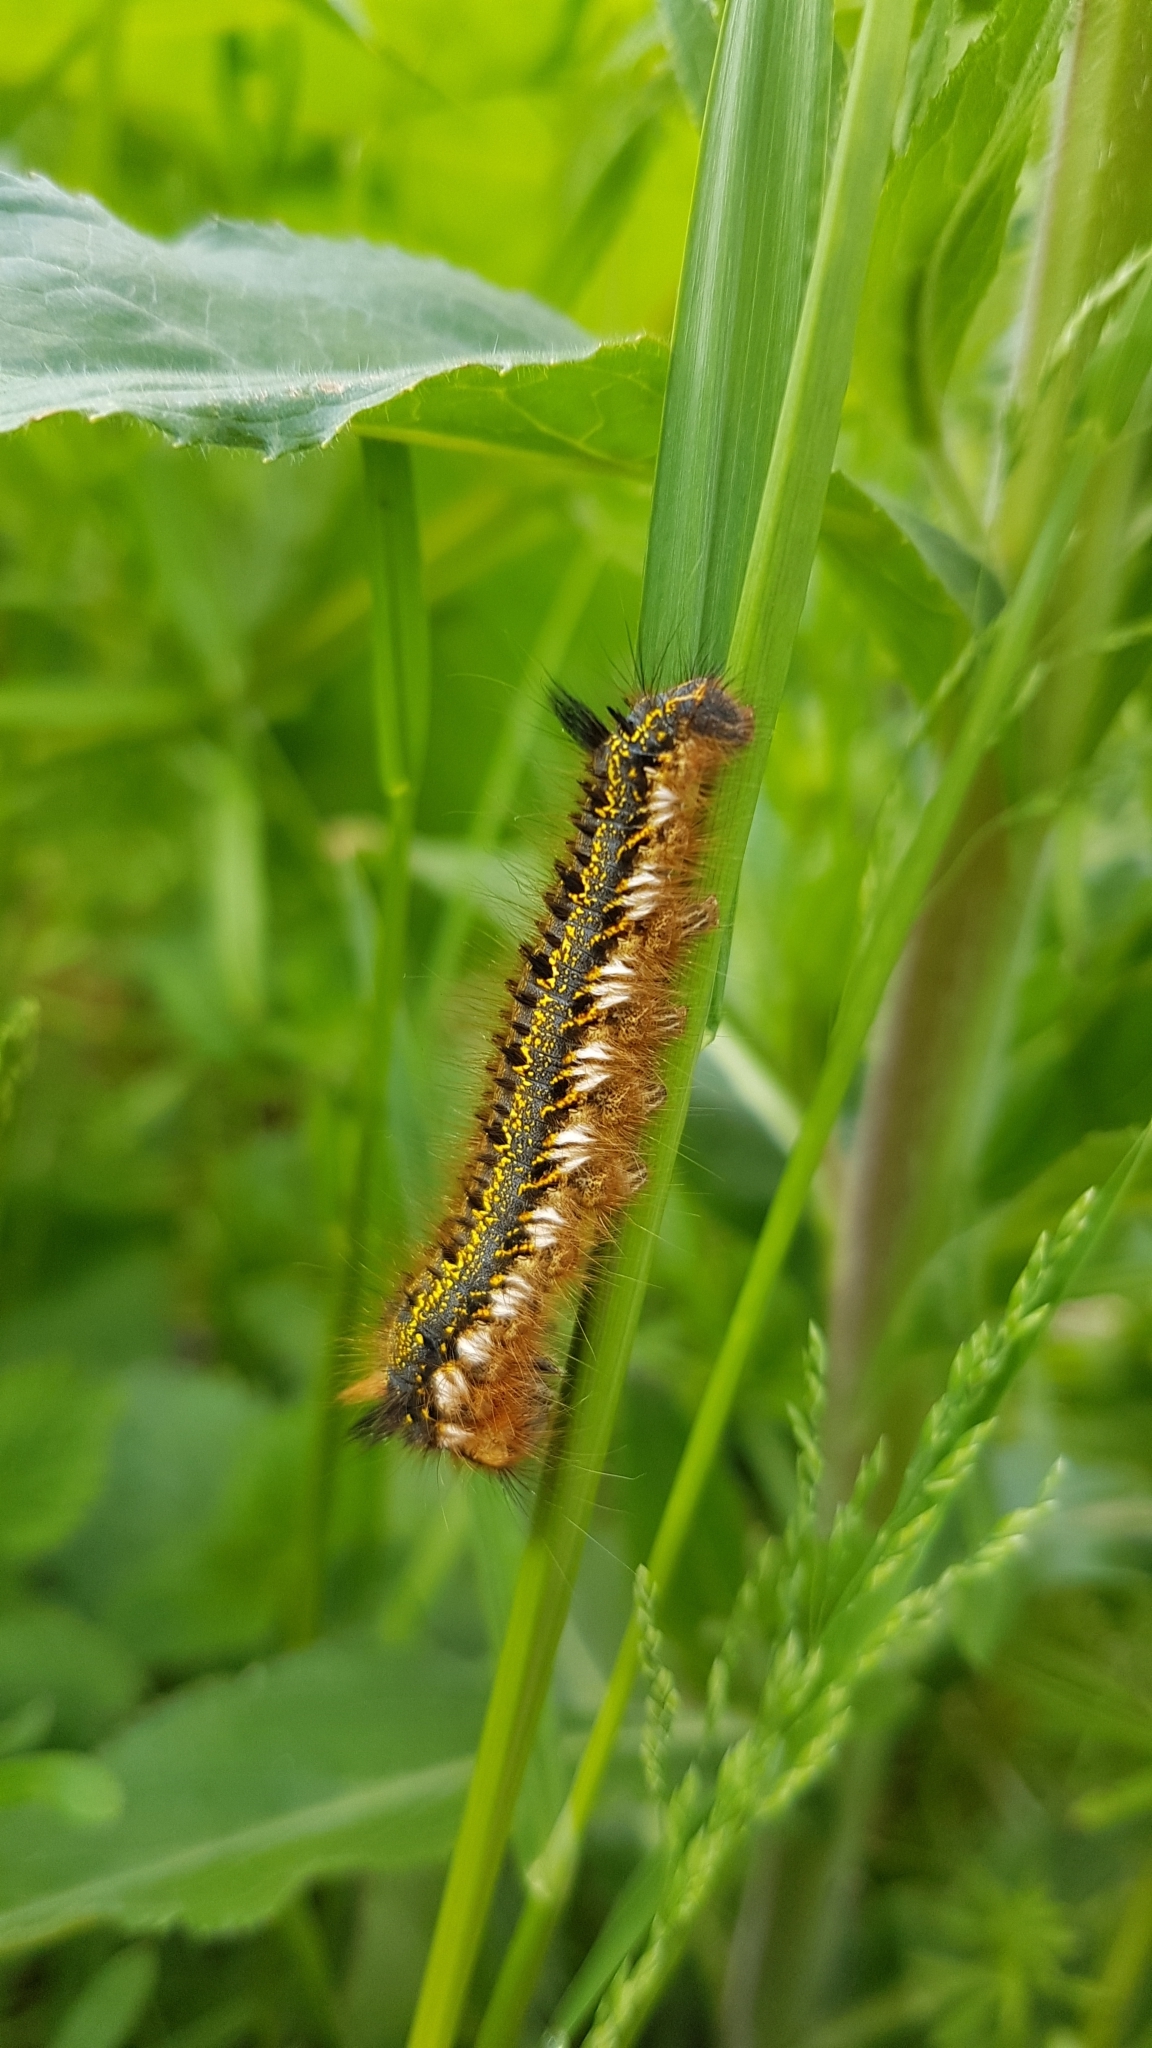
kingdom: Animalia
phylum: Arthropoda
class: Insecta
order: Lepidoptera
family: Lasiocampidae
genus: Euthrix
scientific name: Euthrix potatoria
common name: Drinker
